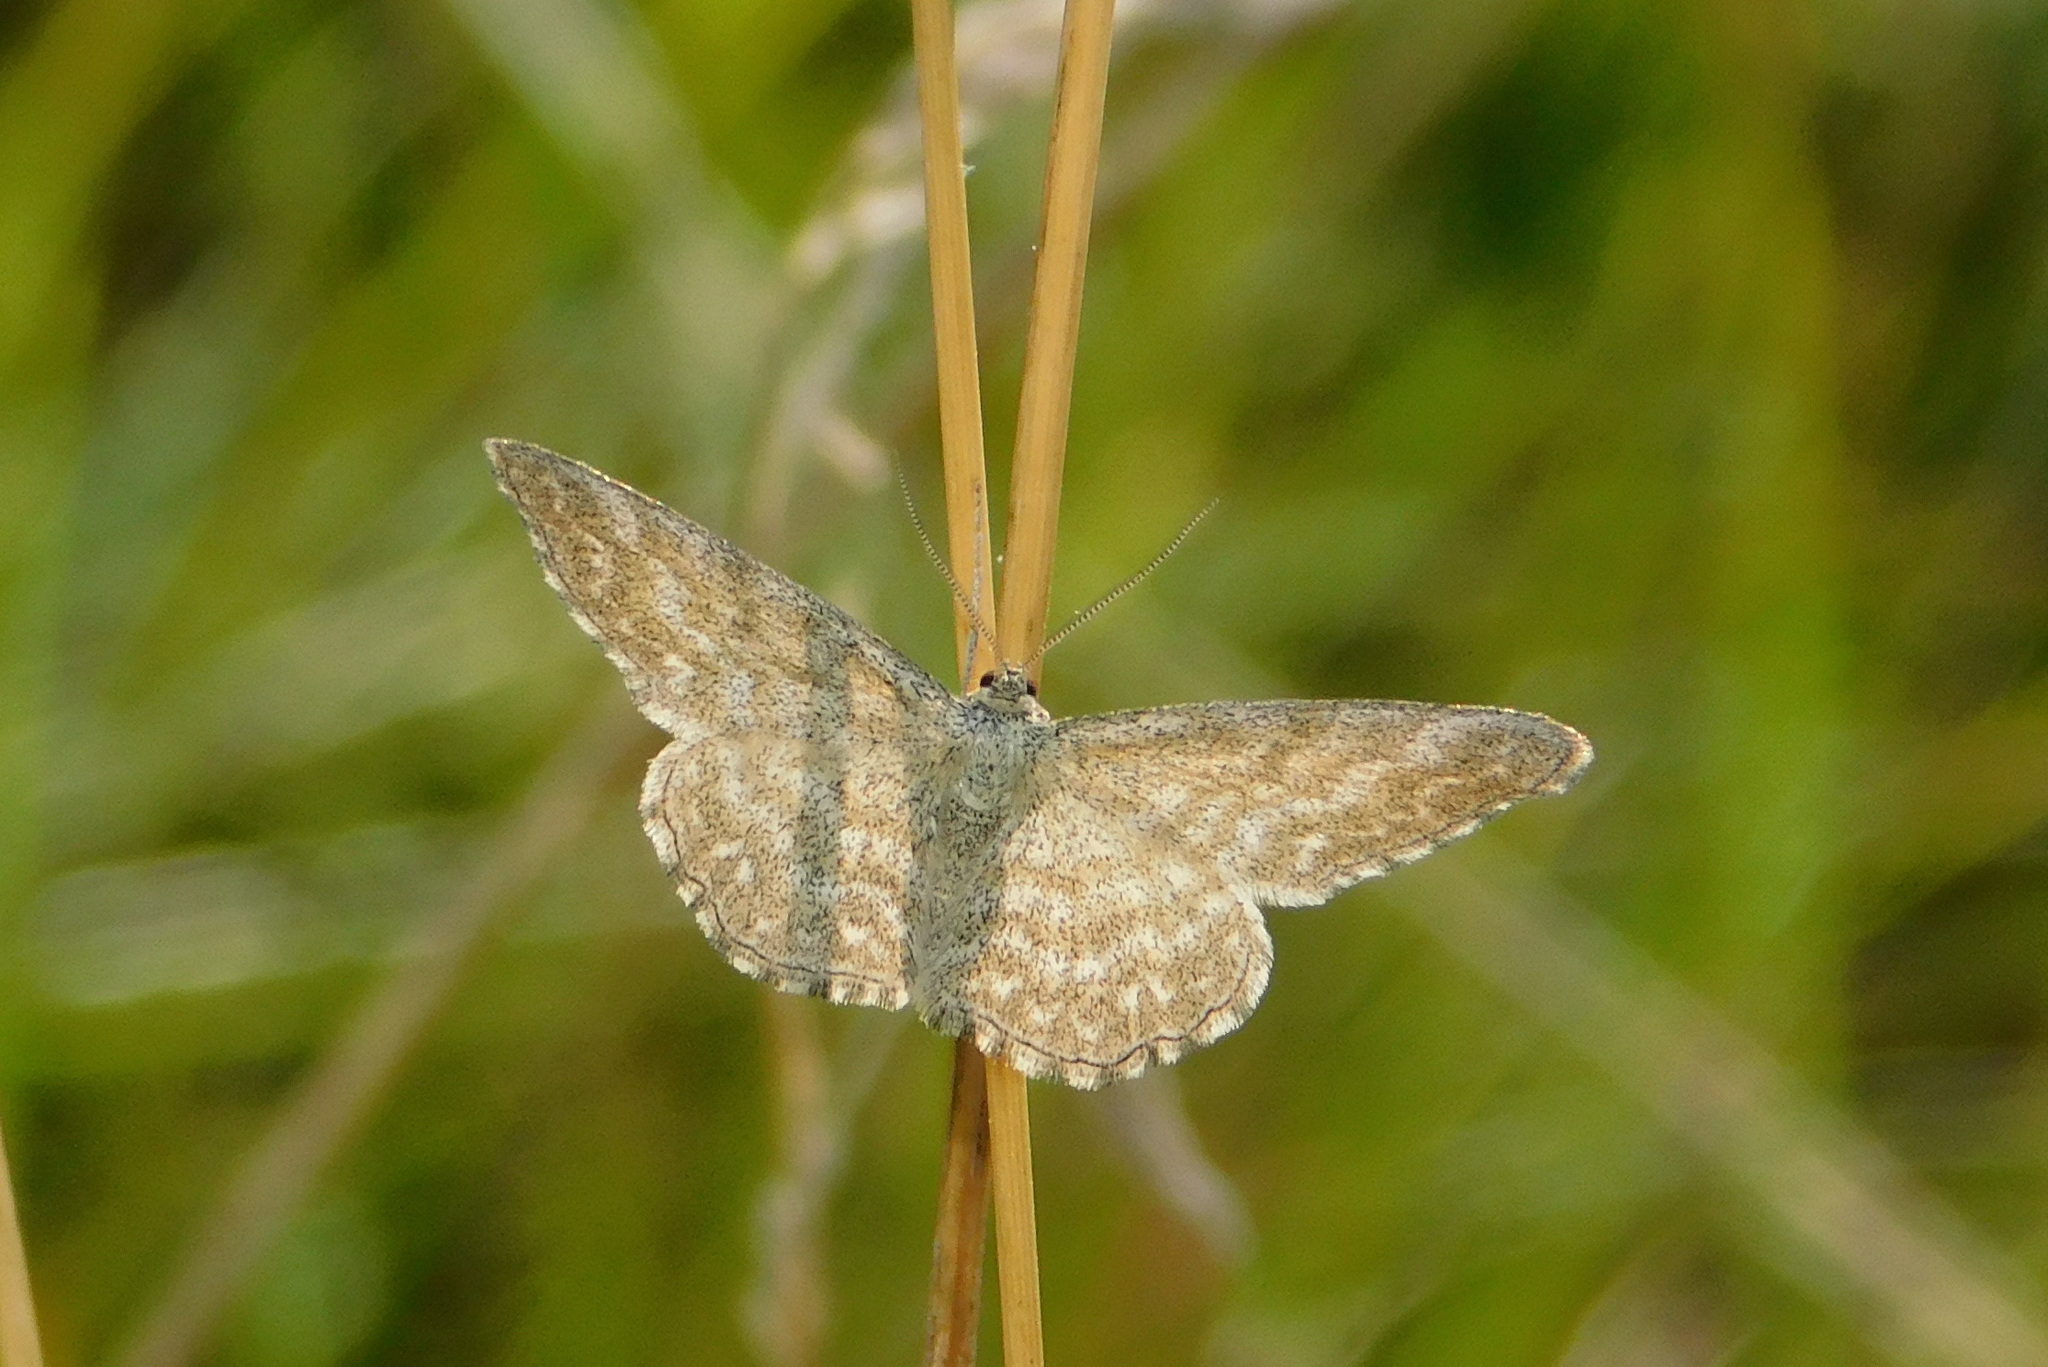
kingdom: Animalia
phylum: Arthropoda
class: Insecta
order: Lepidoptera
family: Geometridae
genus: Scopula
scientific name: Scopula immorata
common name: Lewes wave
